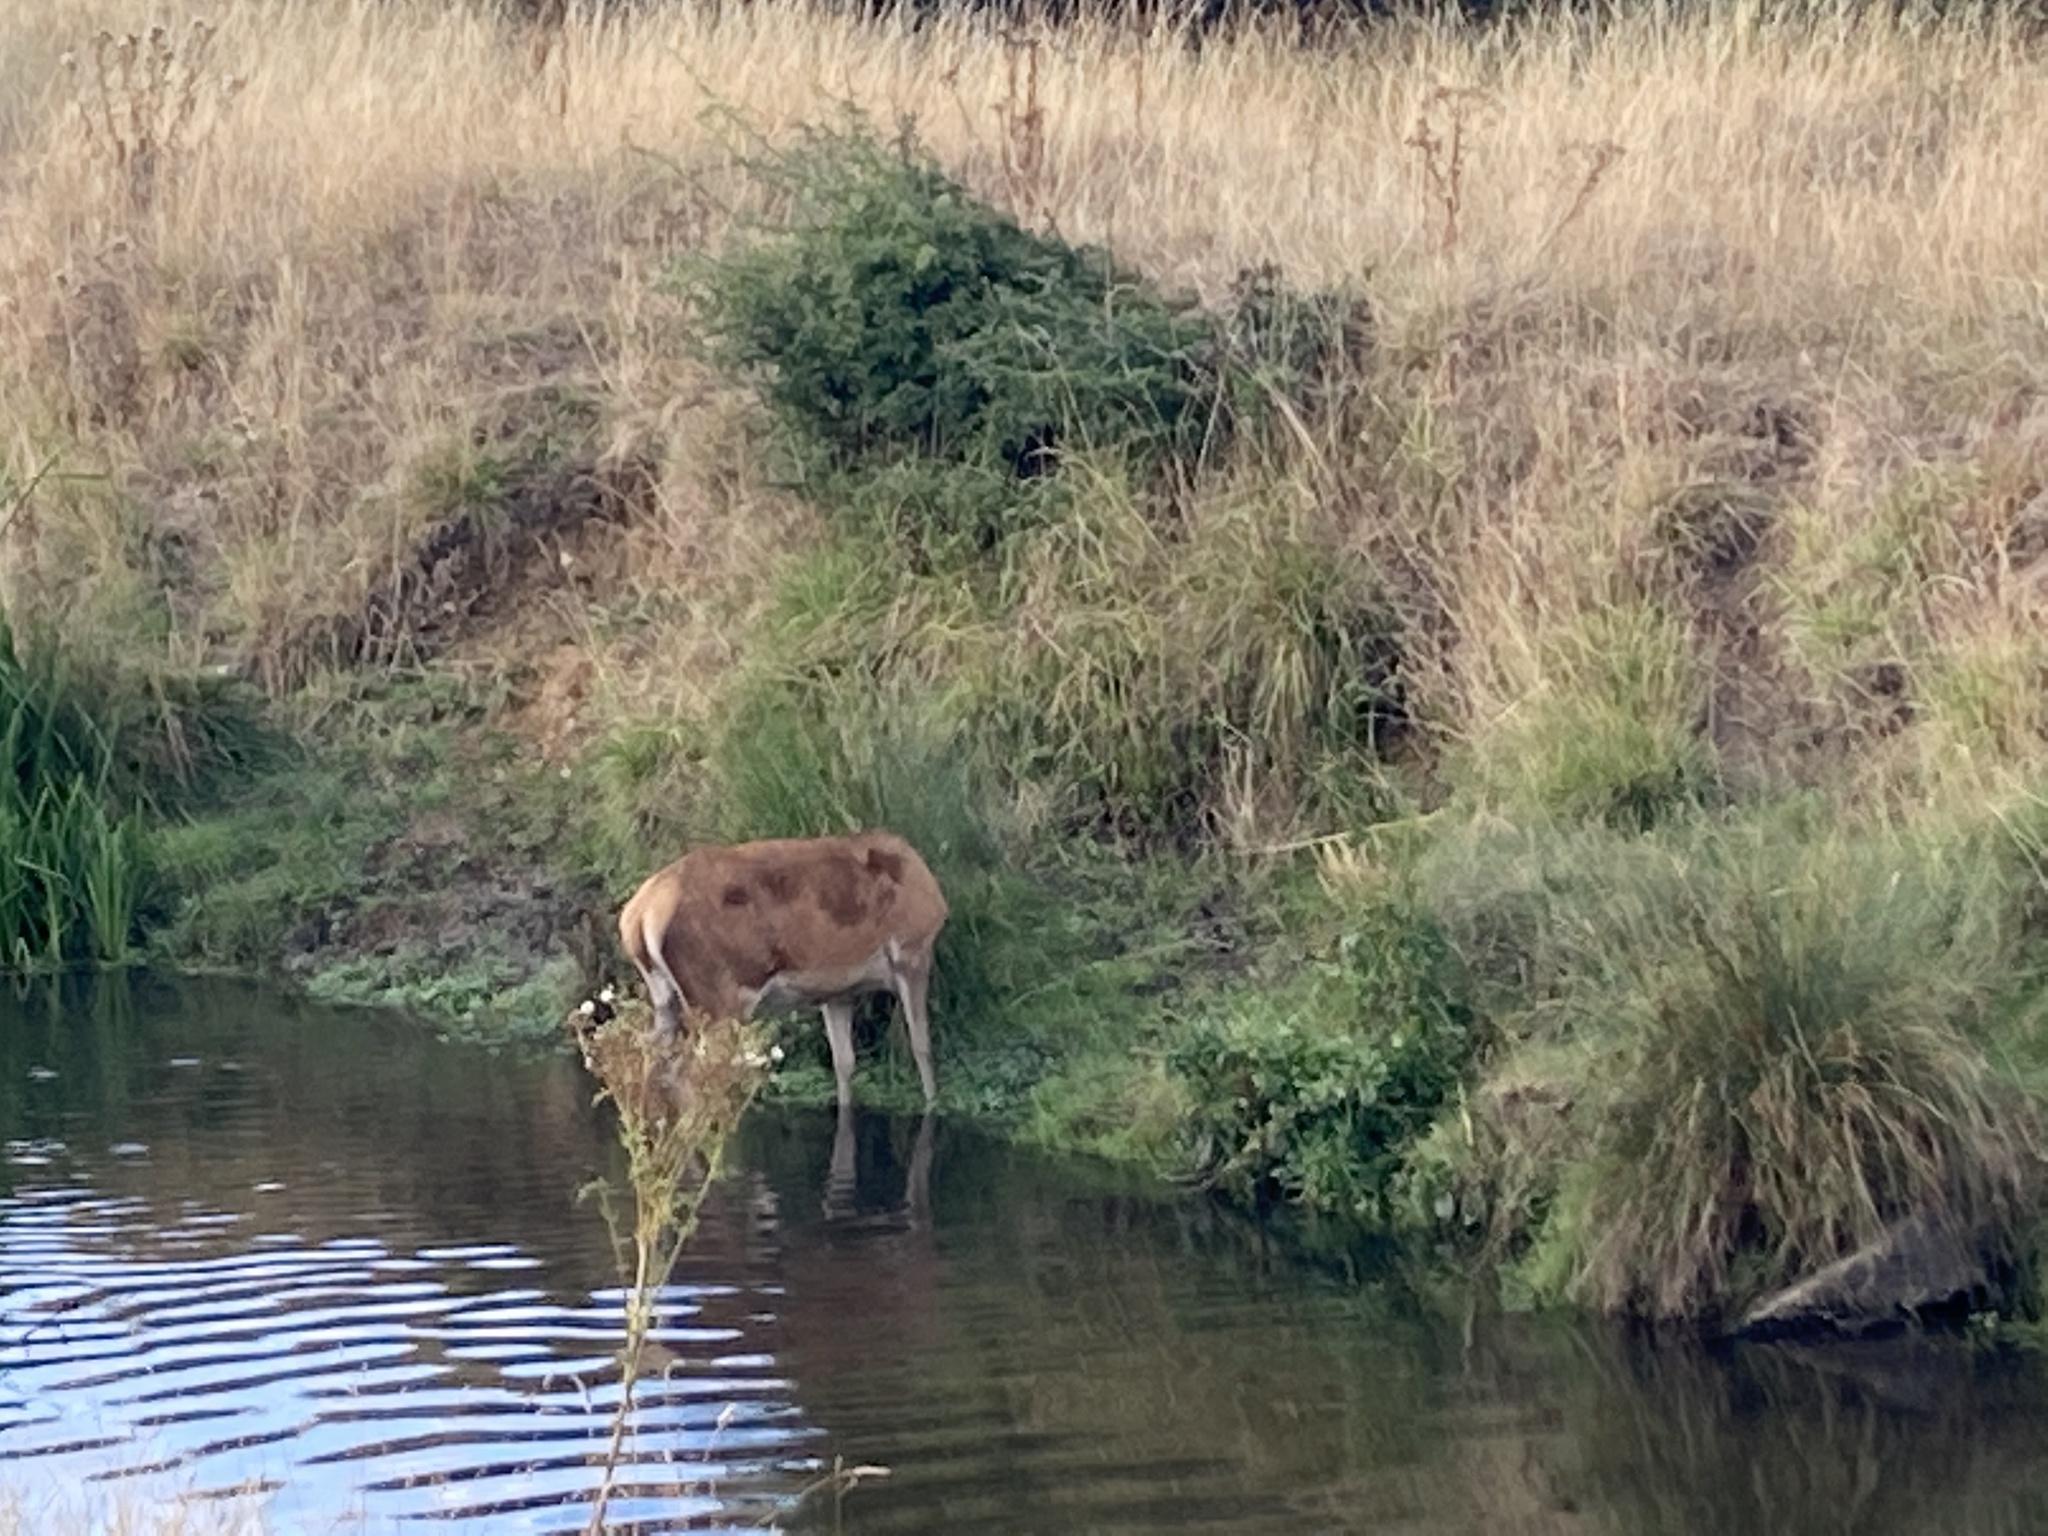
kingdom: Animalia
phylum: Chordata
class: Mammalia
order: Artiodactyla
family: Cervidae
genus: Cervus
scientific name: Cervus elaphus
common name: Red deer
